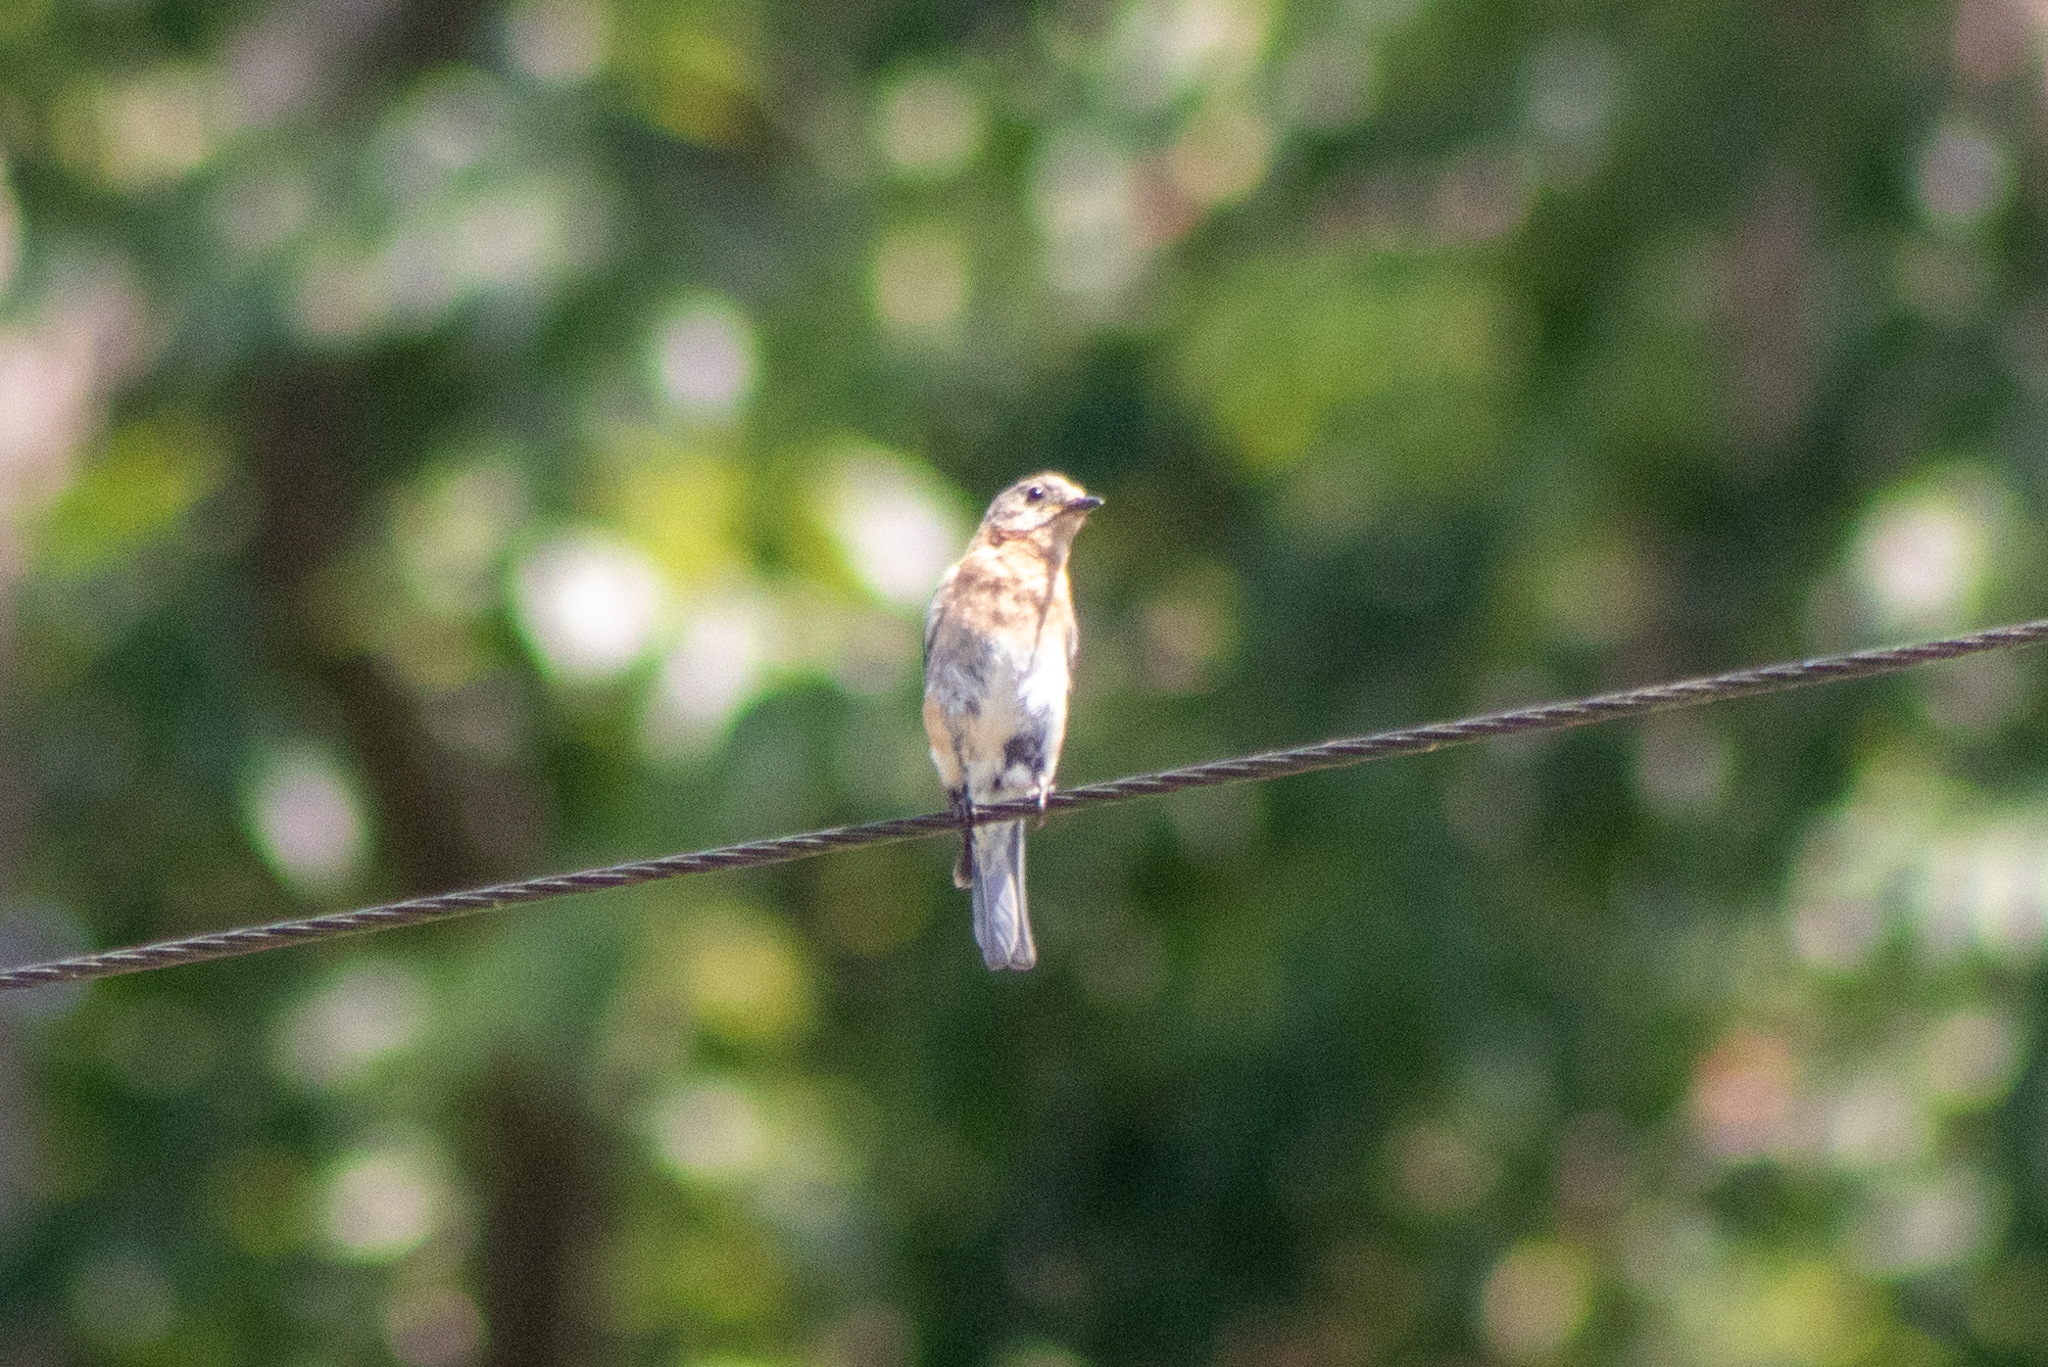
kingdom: Animalia
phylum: Chordata
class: Aves
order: Passeriformes
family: Turdidae
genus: Sialia
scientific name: Sialia sialis
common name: Eastern bluebird
